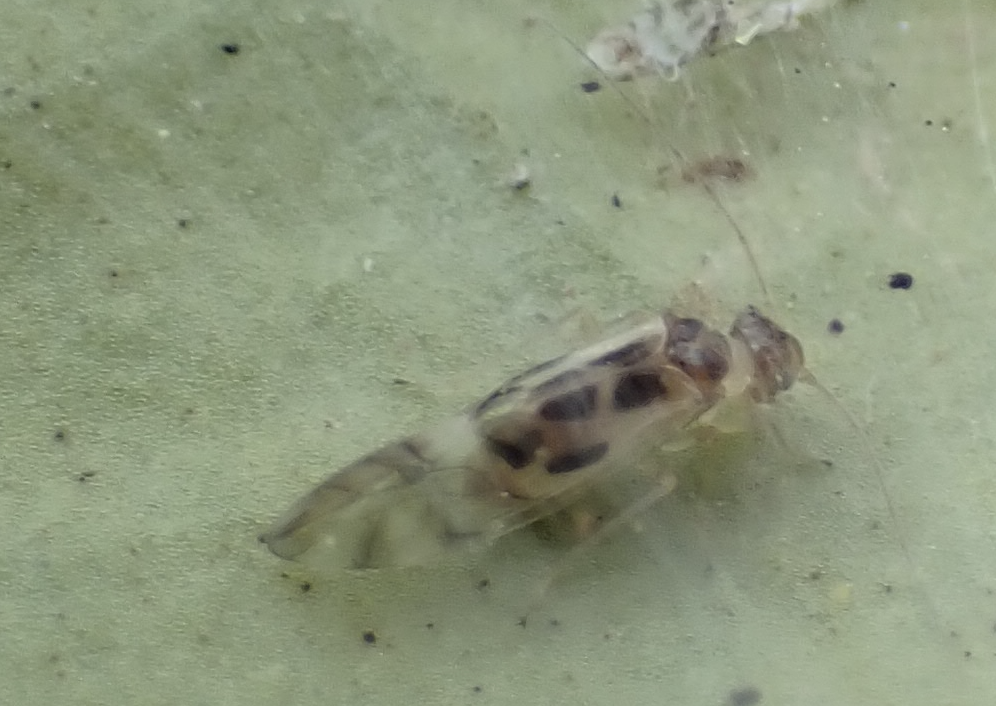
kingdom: Animalia
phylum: Arthropoda
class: Insecta
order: Psocodea
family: Stenopsocidae
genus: Graphopsocus
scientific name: Graphopsocus cruciatus
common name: Lizard bark louse
